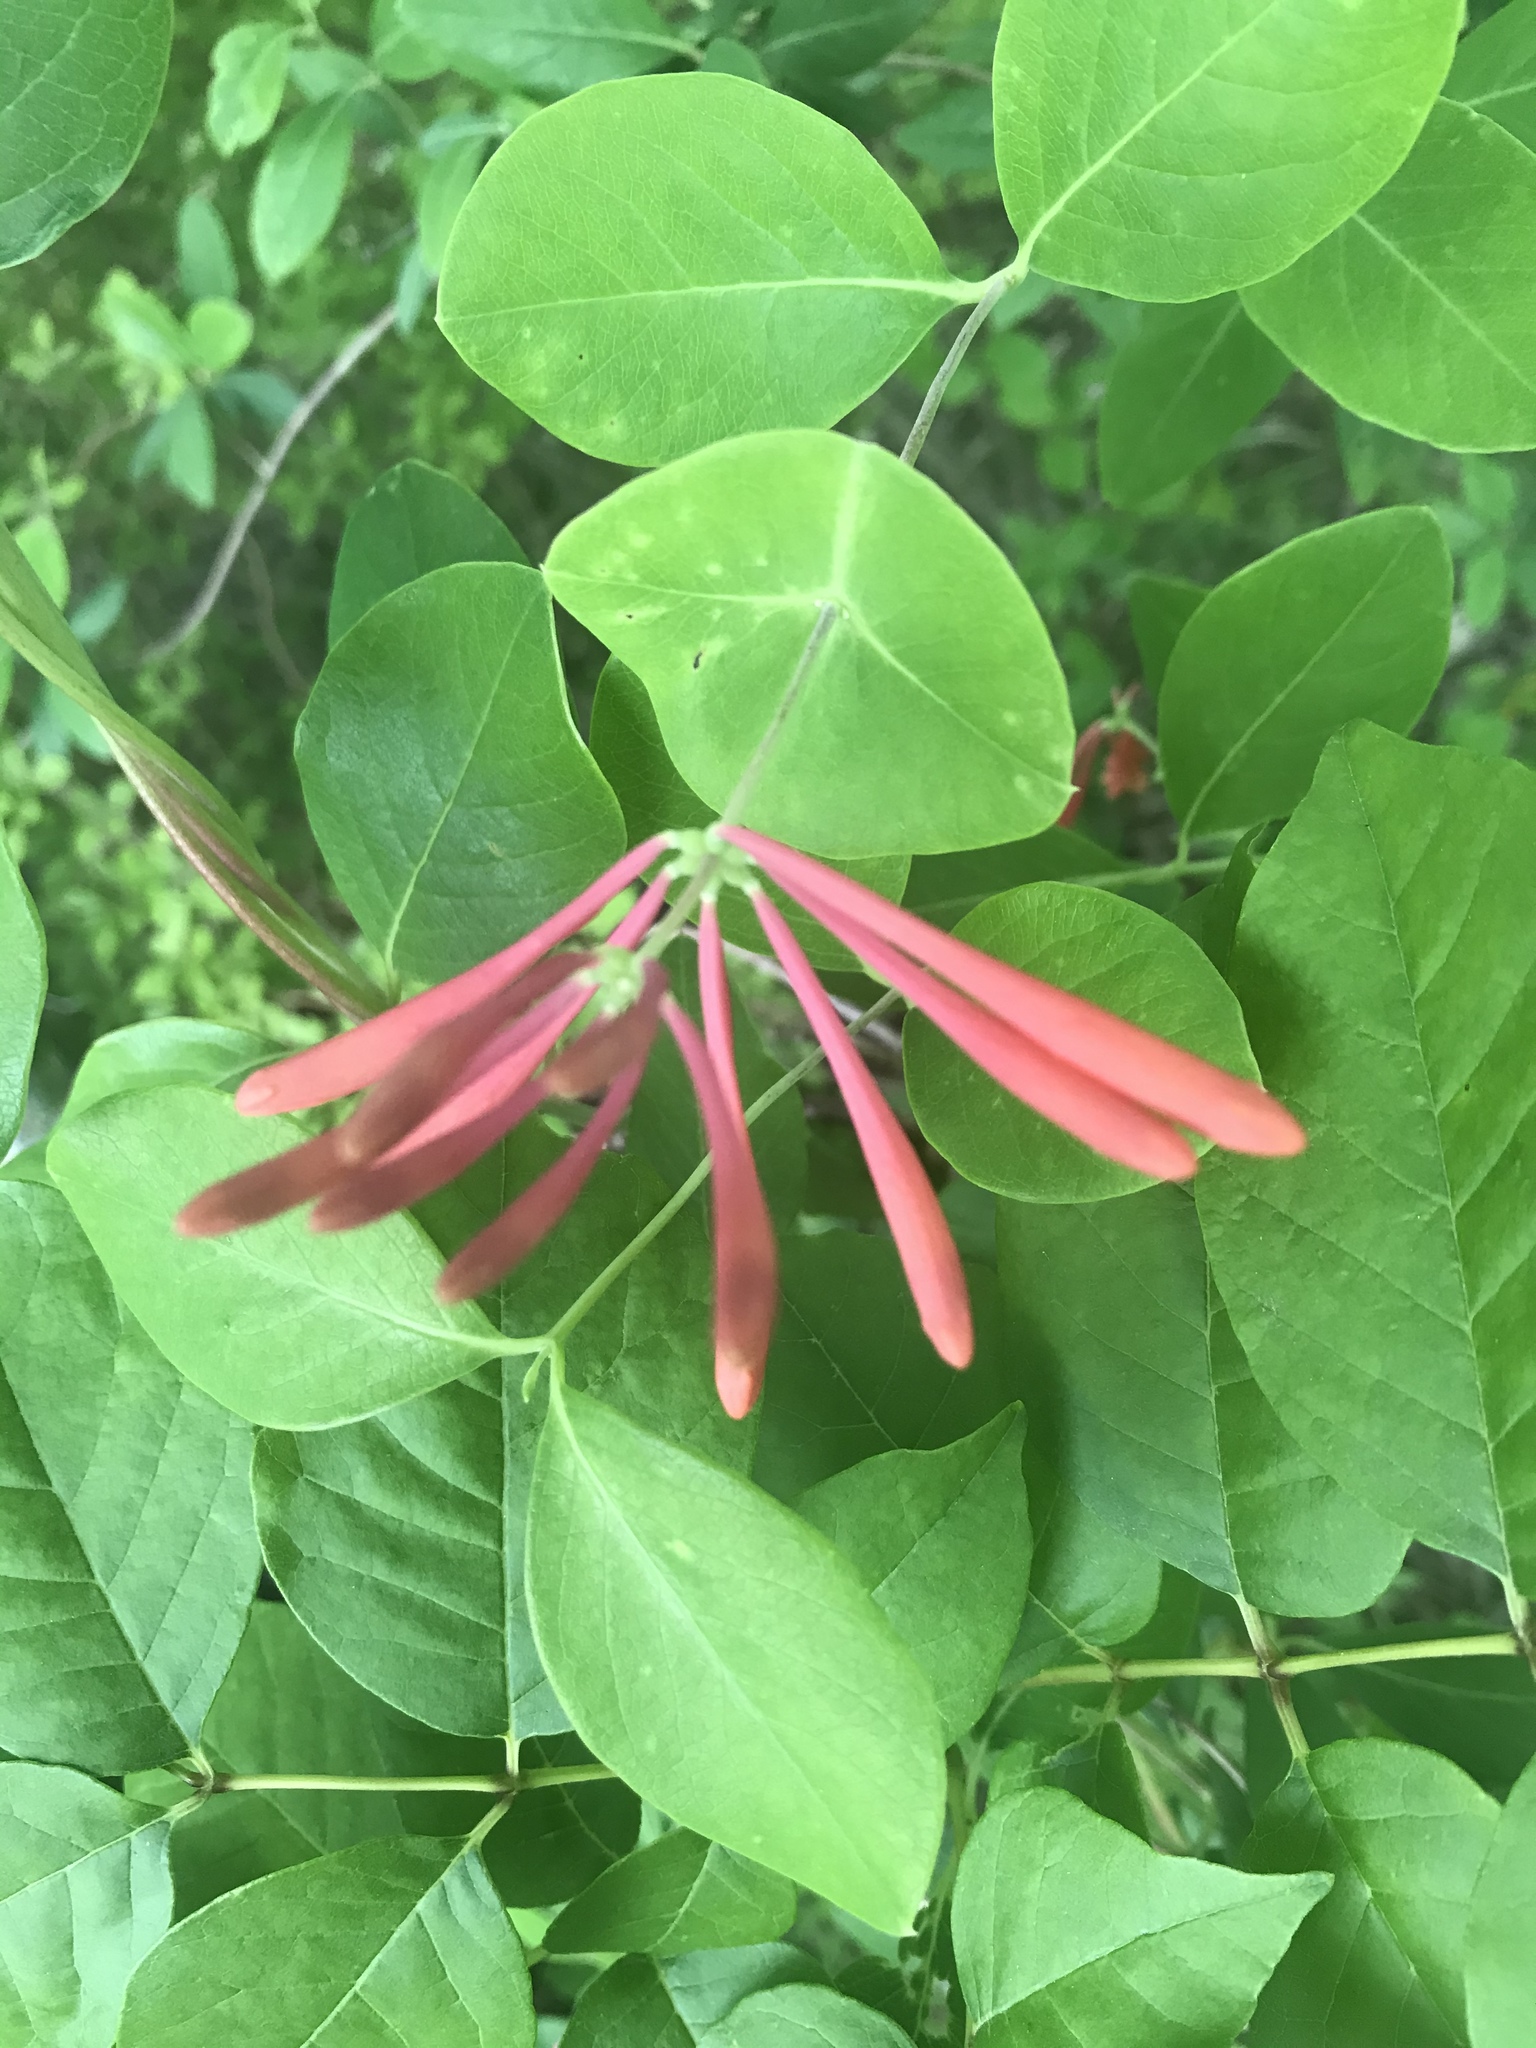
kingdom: Plantae
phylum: Tracheophyta
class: Magnoliopsida
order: Dipsacales
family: Caprifoliaceae
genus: Lonicera
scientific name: Lonicera sempervirens
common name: Coral honeysuckle
